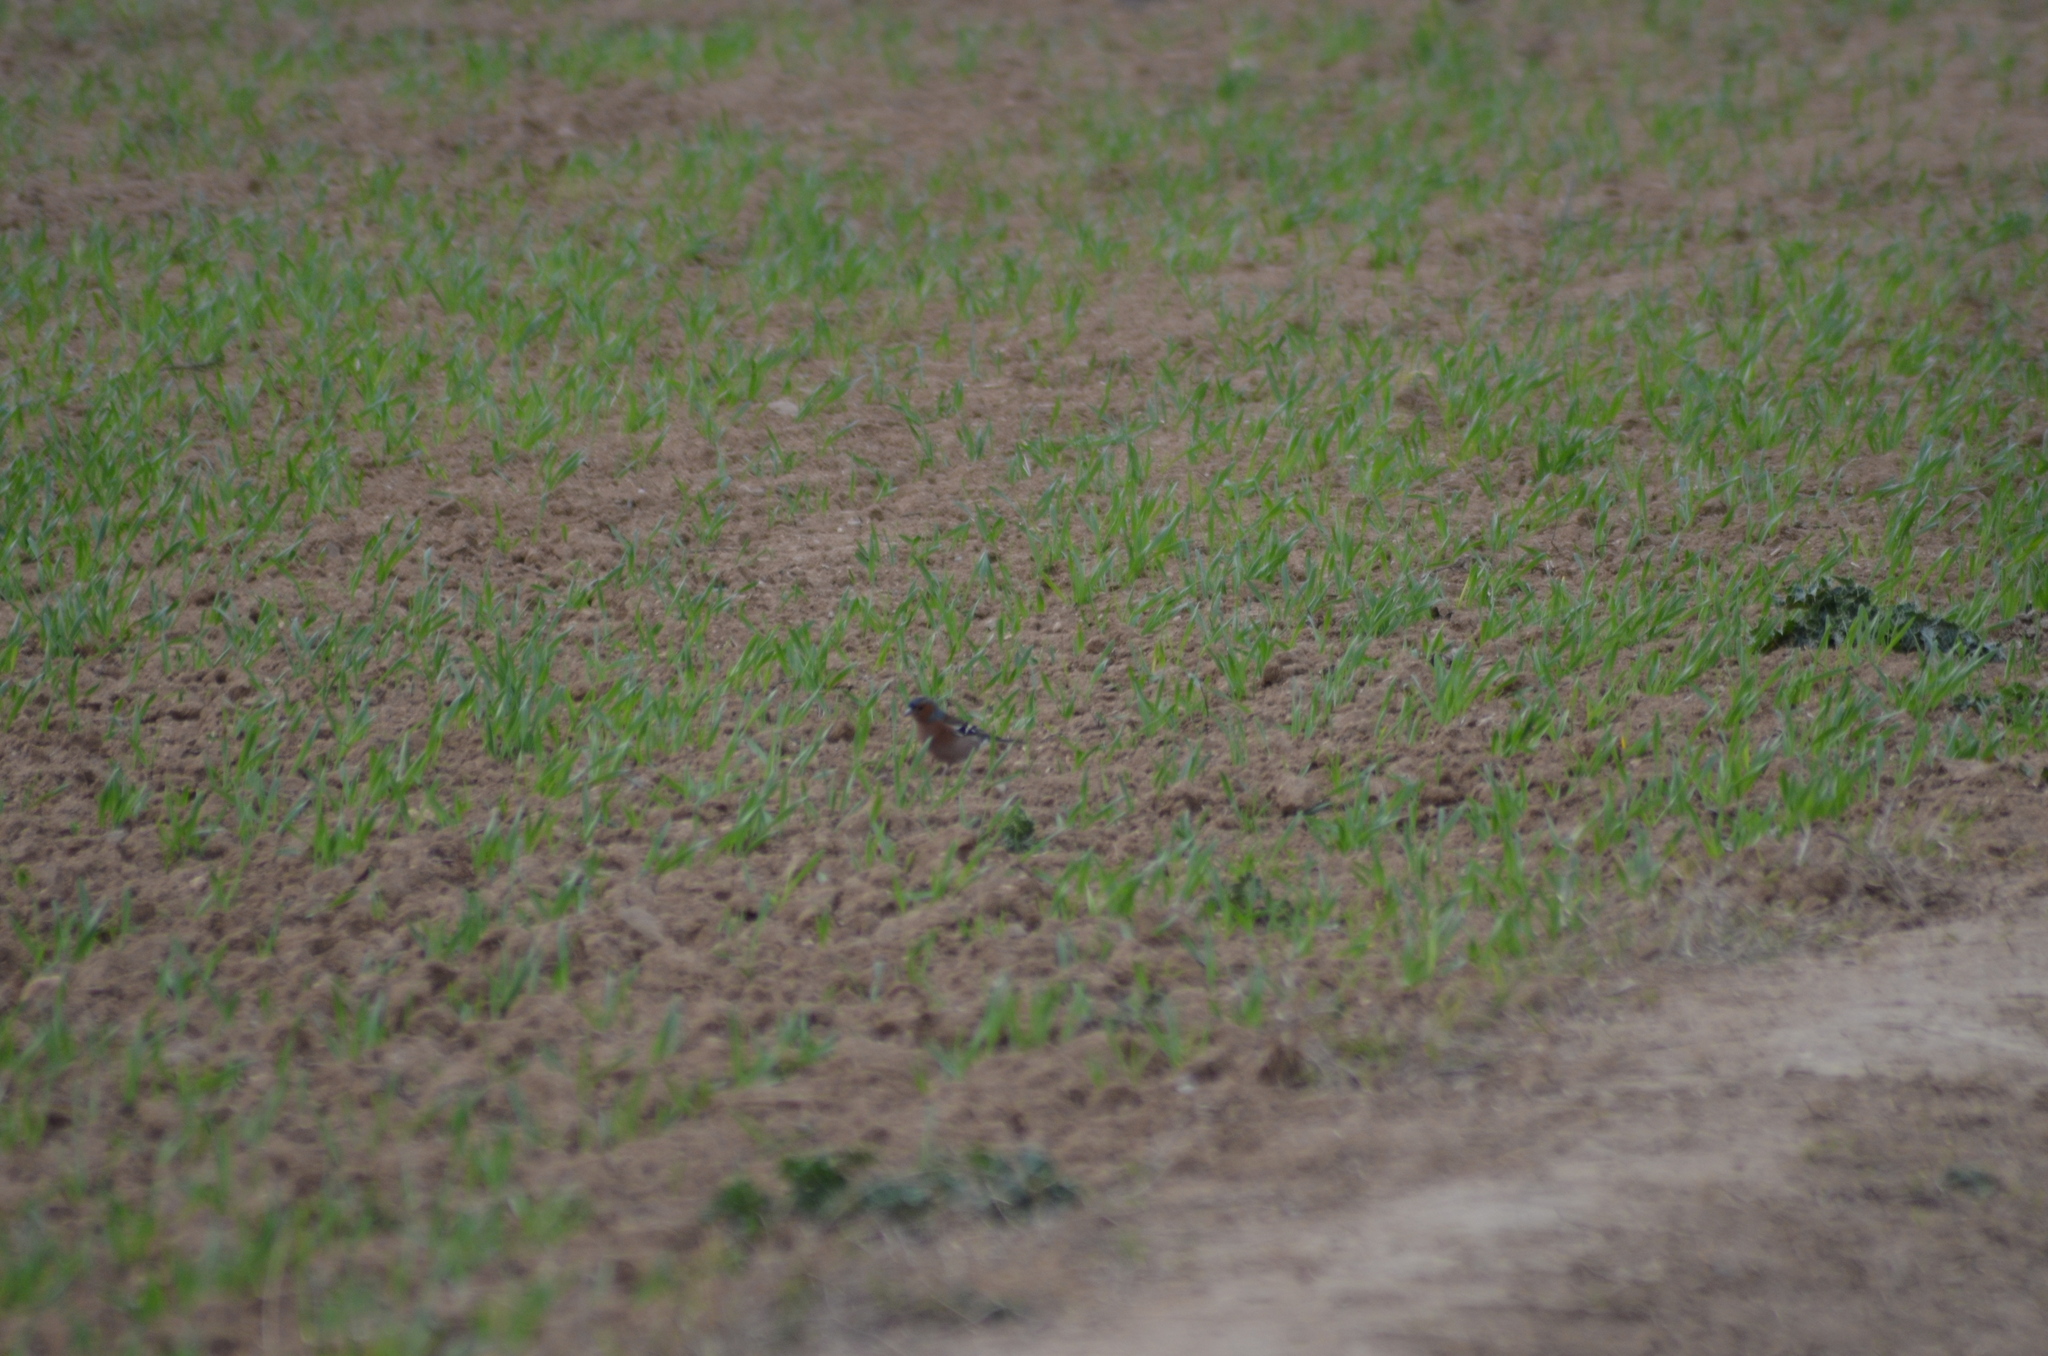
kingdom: Animalia
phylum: Chordata
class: Aves
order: Passeriformes
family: Fringillidae
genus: Fringilla
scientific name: Fringilla coelebs
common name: Common chaffinch
